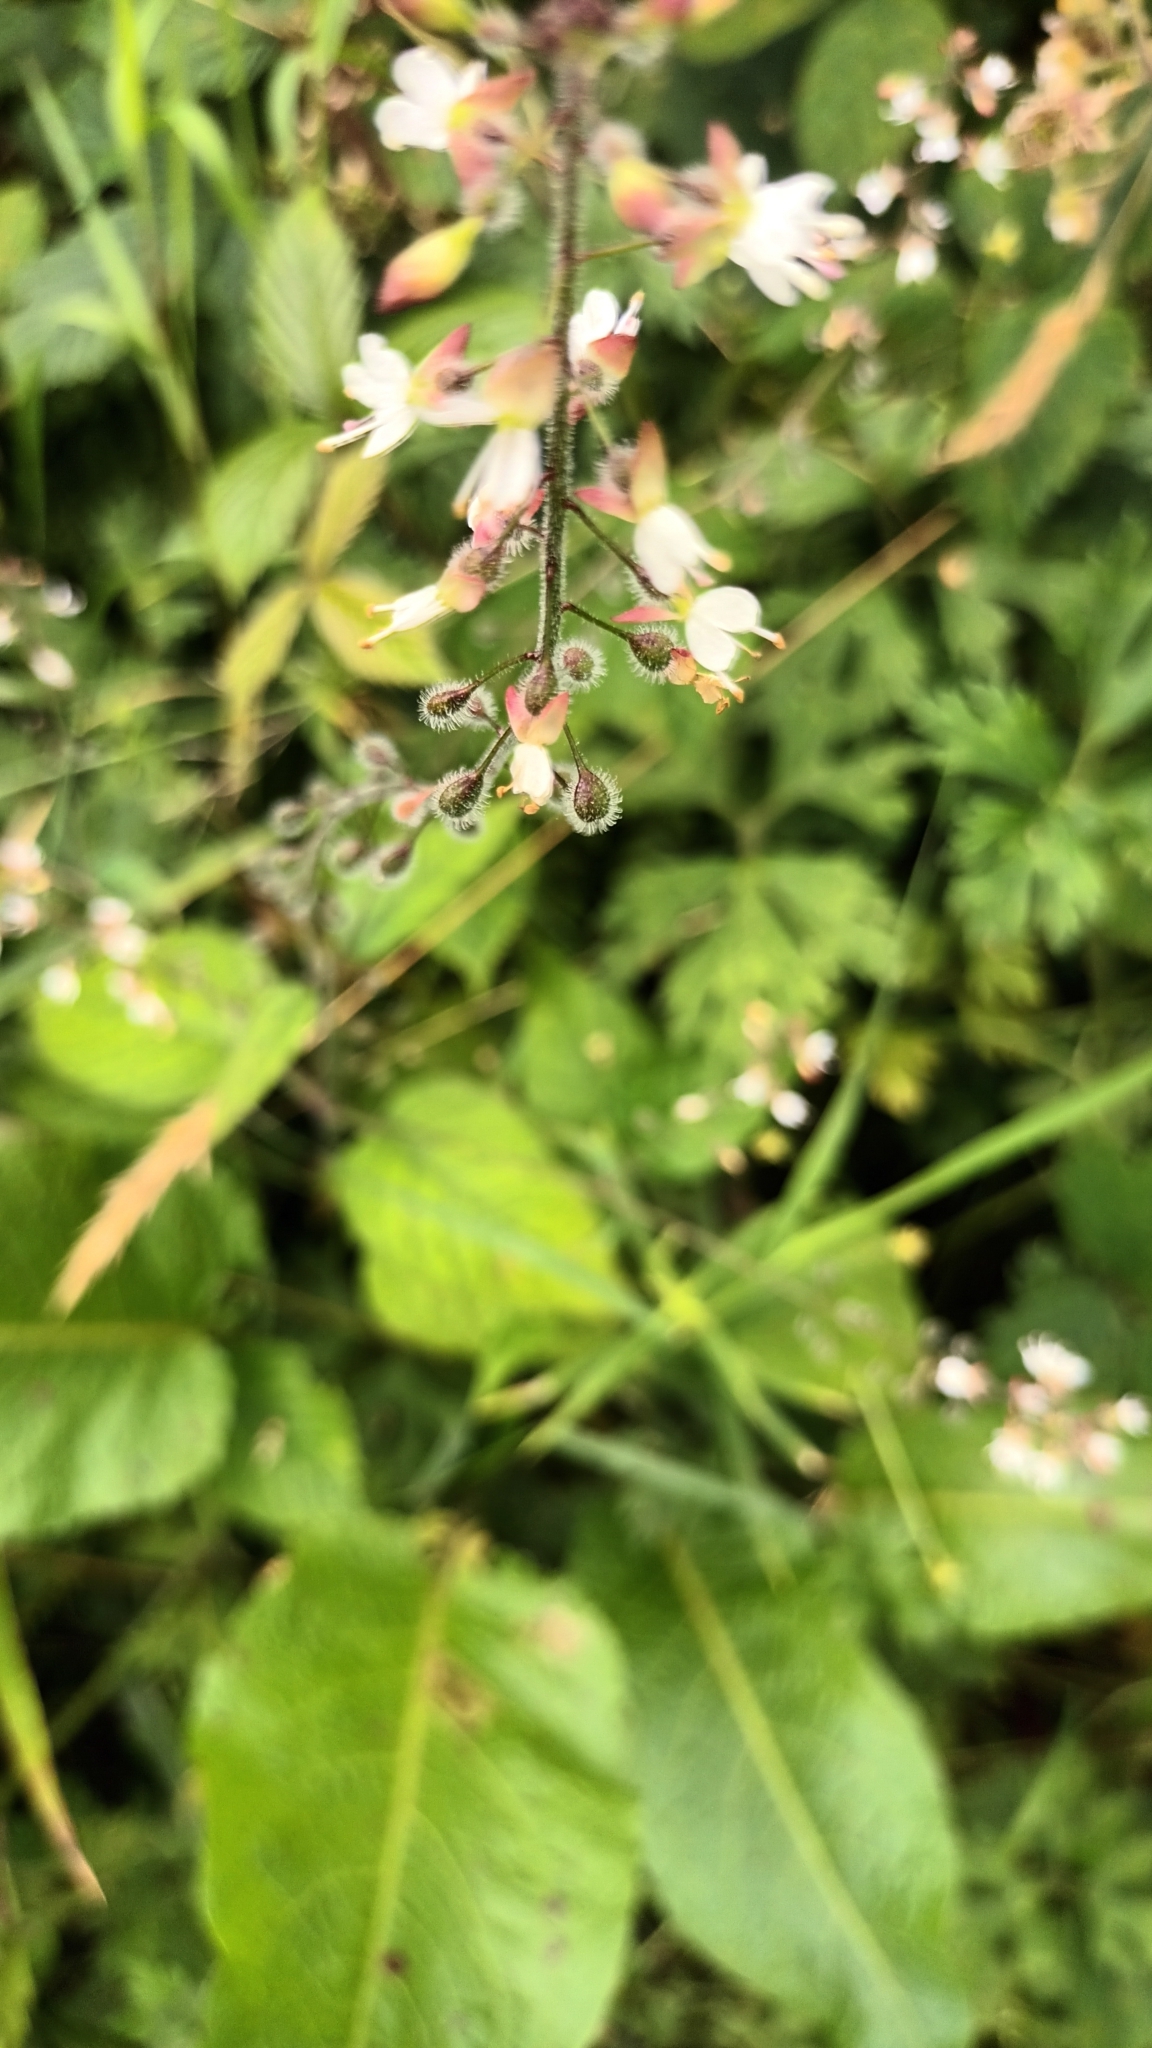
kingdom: Plantae
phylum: Tracheophyta
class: Magnoliopsida
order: Myrtales
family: Onagraceae
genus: Circaea
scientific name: Circaea lutetiana
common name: Enchanter's-nightshade
